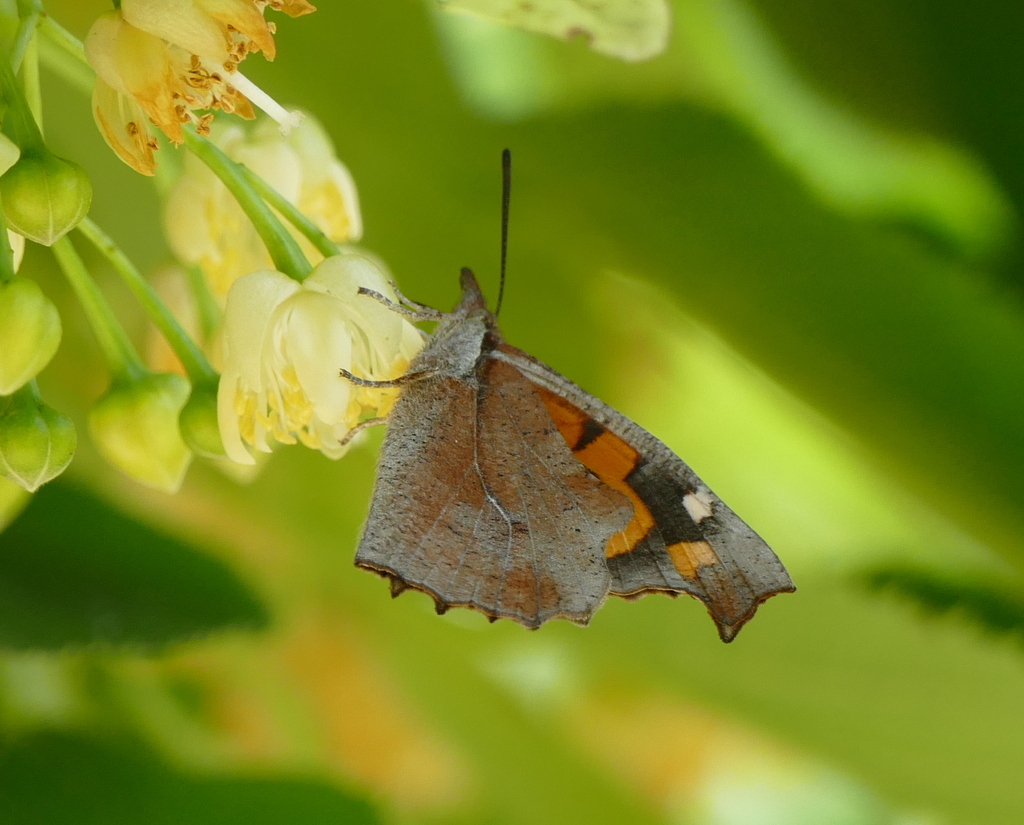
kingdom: Animalia
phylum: Arthropoda
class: Insecta
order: Lepidoptera
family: Nymphalidae
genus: Libythea
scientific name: Libythea celtis
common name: Nettle-tree butterfly
